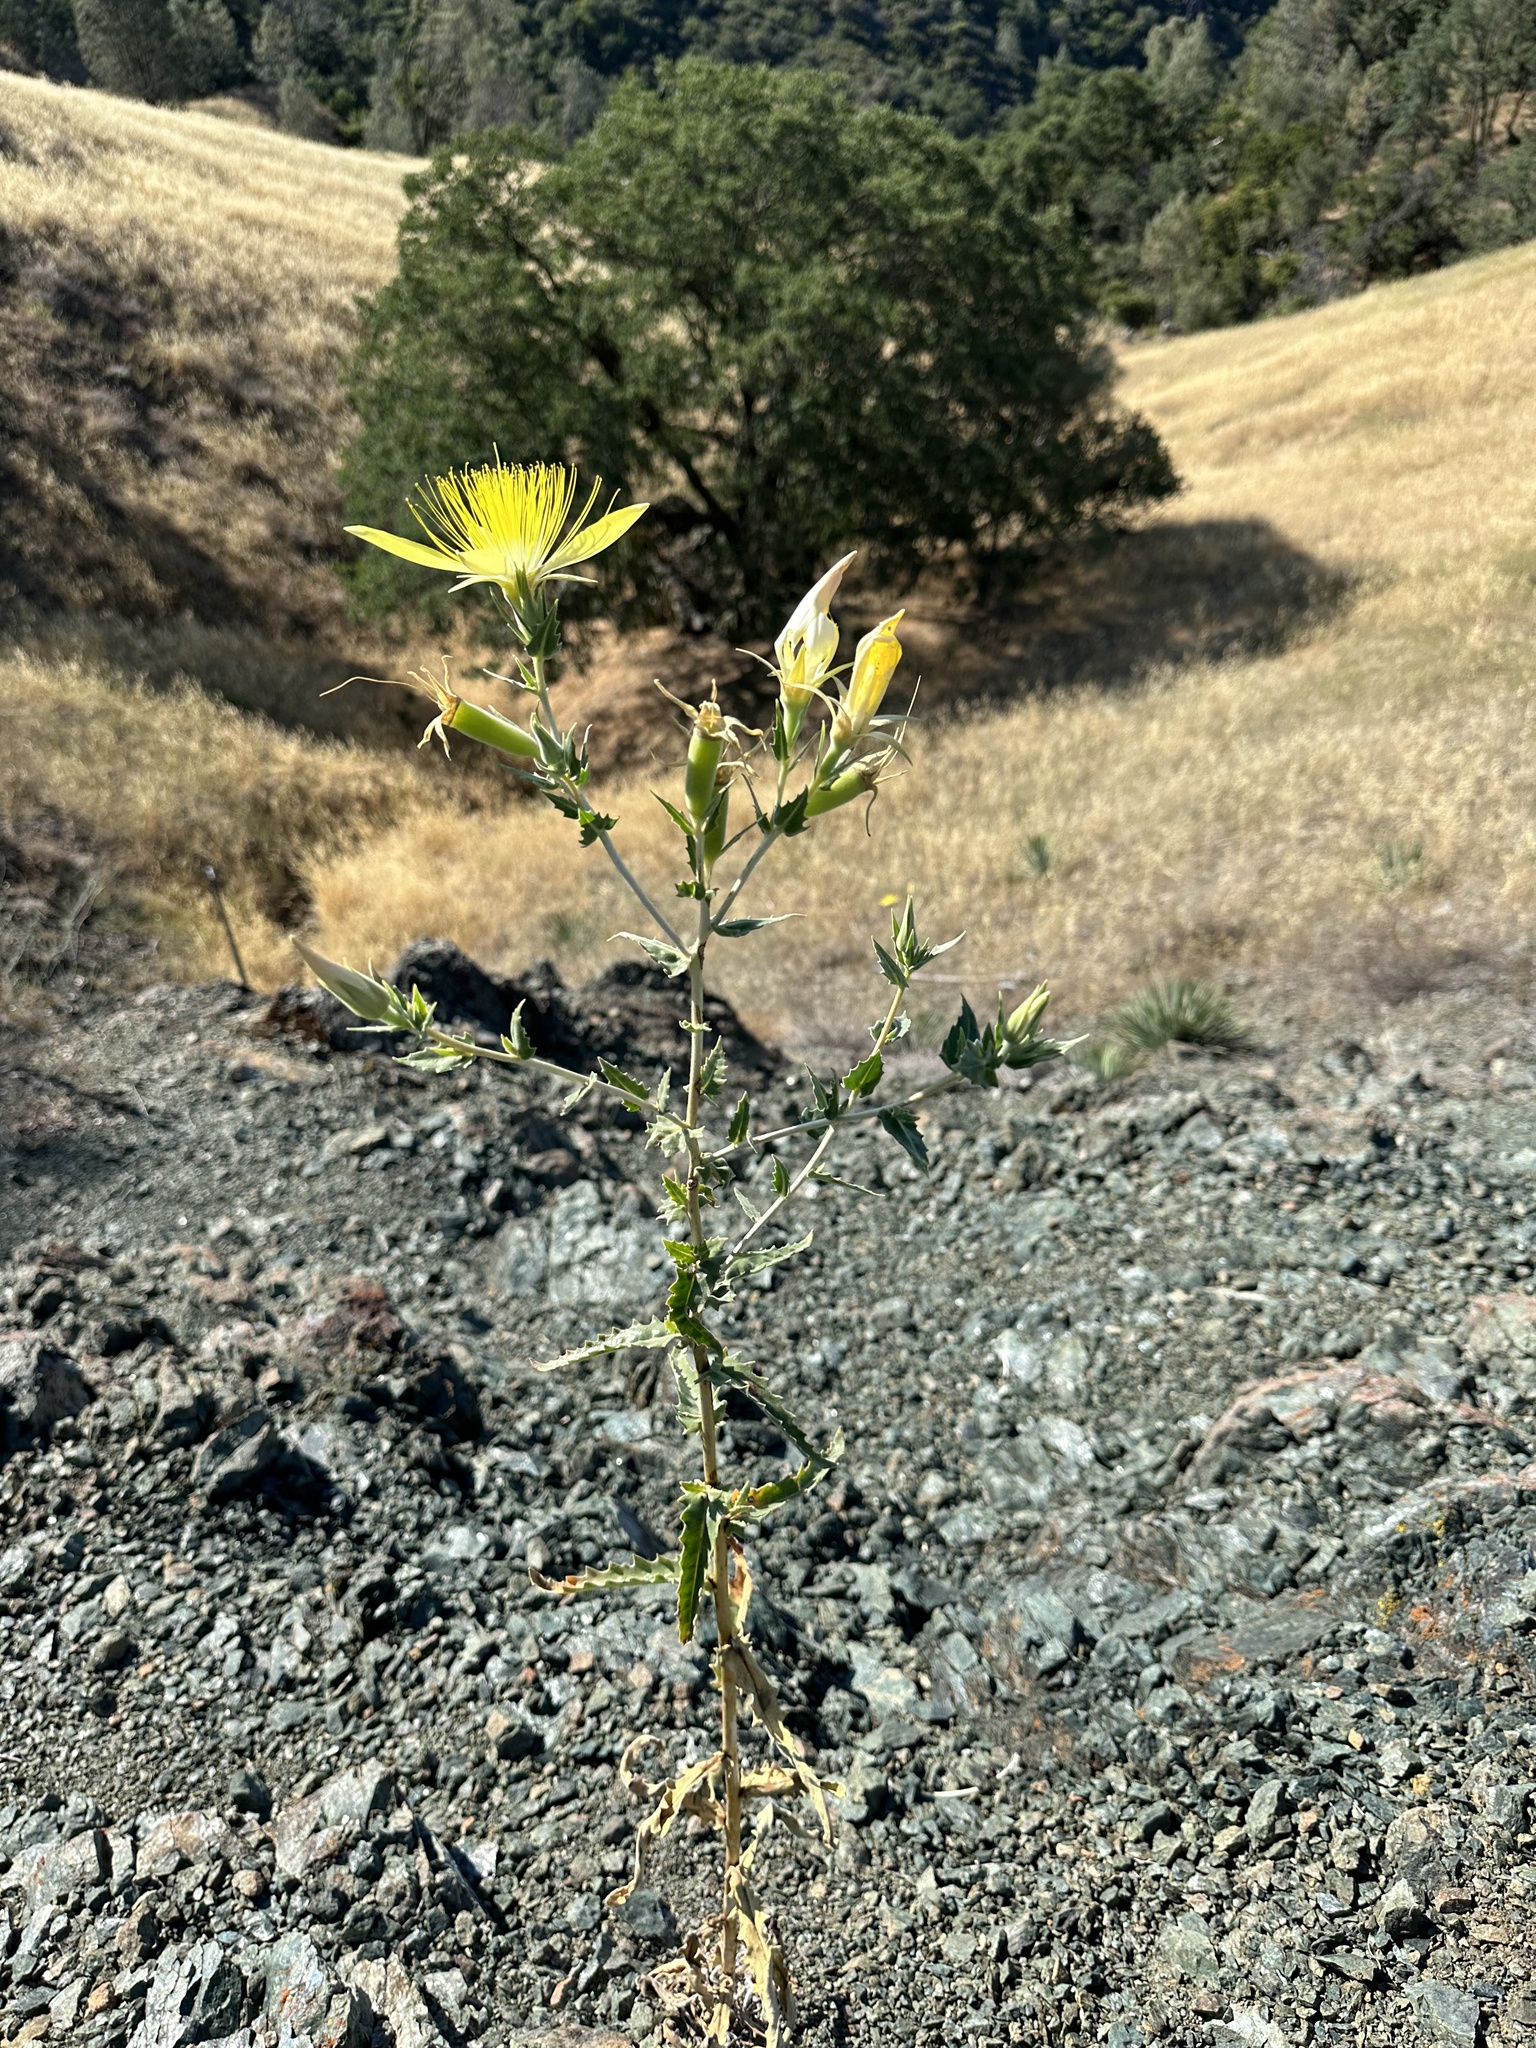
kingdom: Plantae
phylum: Tracheophyta
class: Magnoliopsida
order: Cornales
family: Loasaceae
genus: Mentzelia
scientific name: Mentzelia laevicaulis
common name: Smooth-stem blazingstar
